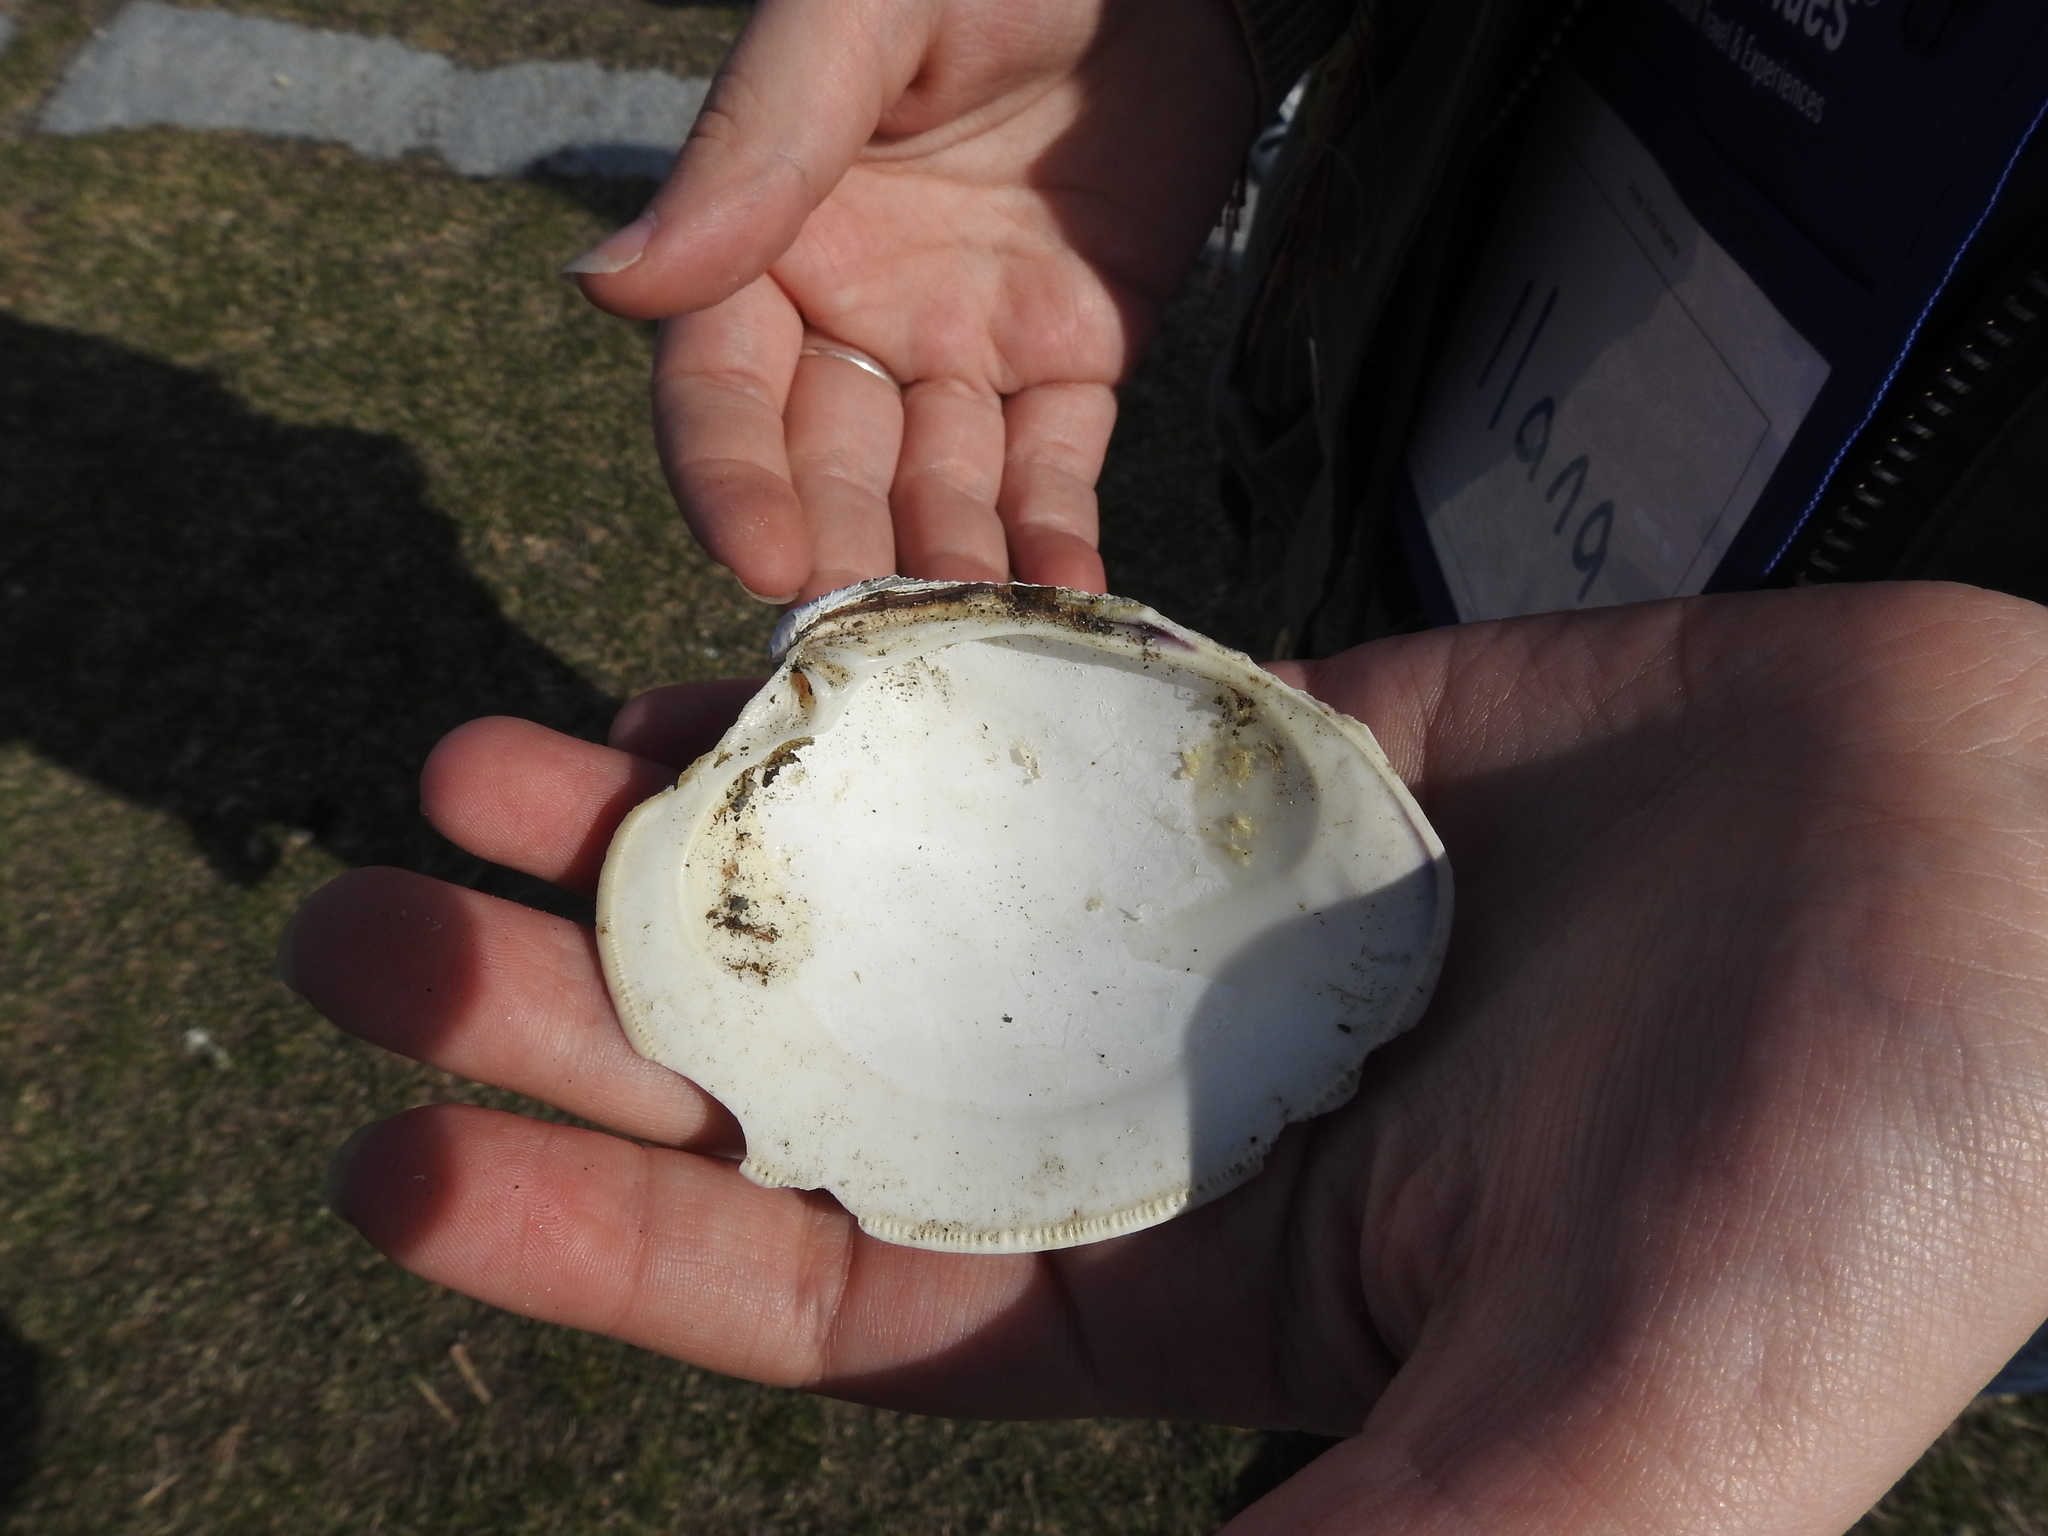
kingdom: Animalia
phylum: Mollusca
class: Bivalvia
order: Venerida
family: Veneridae
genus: Mercenaria
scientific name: Mercenaria mercenaria
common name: American hard-shelled clam
